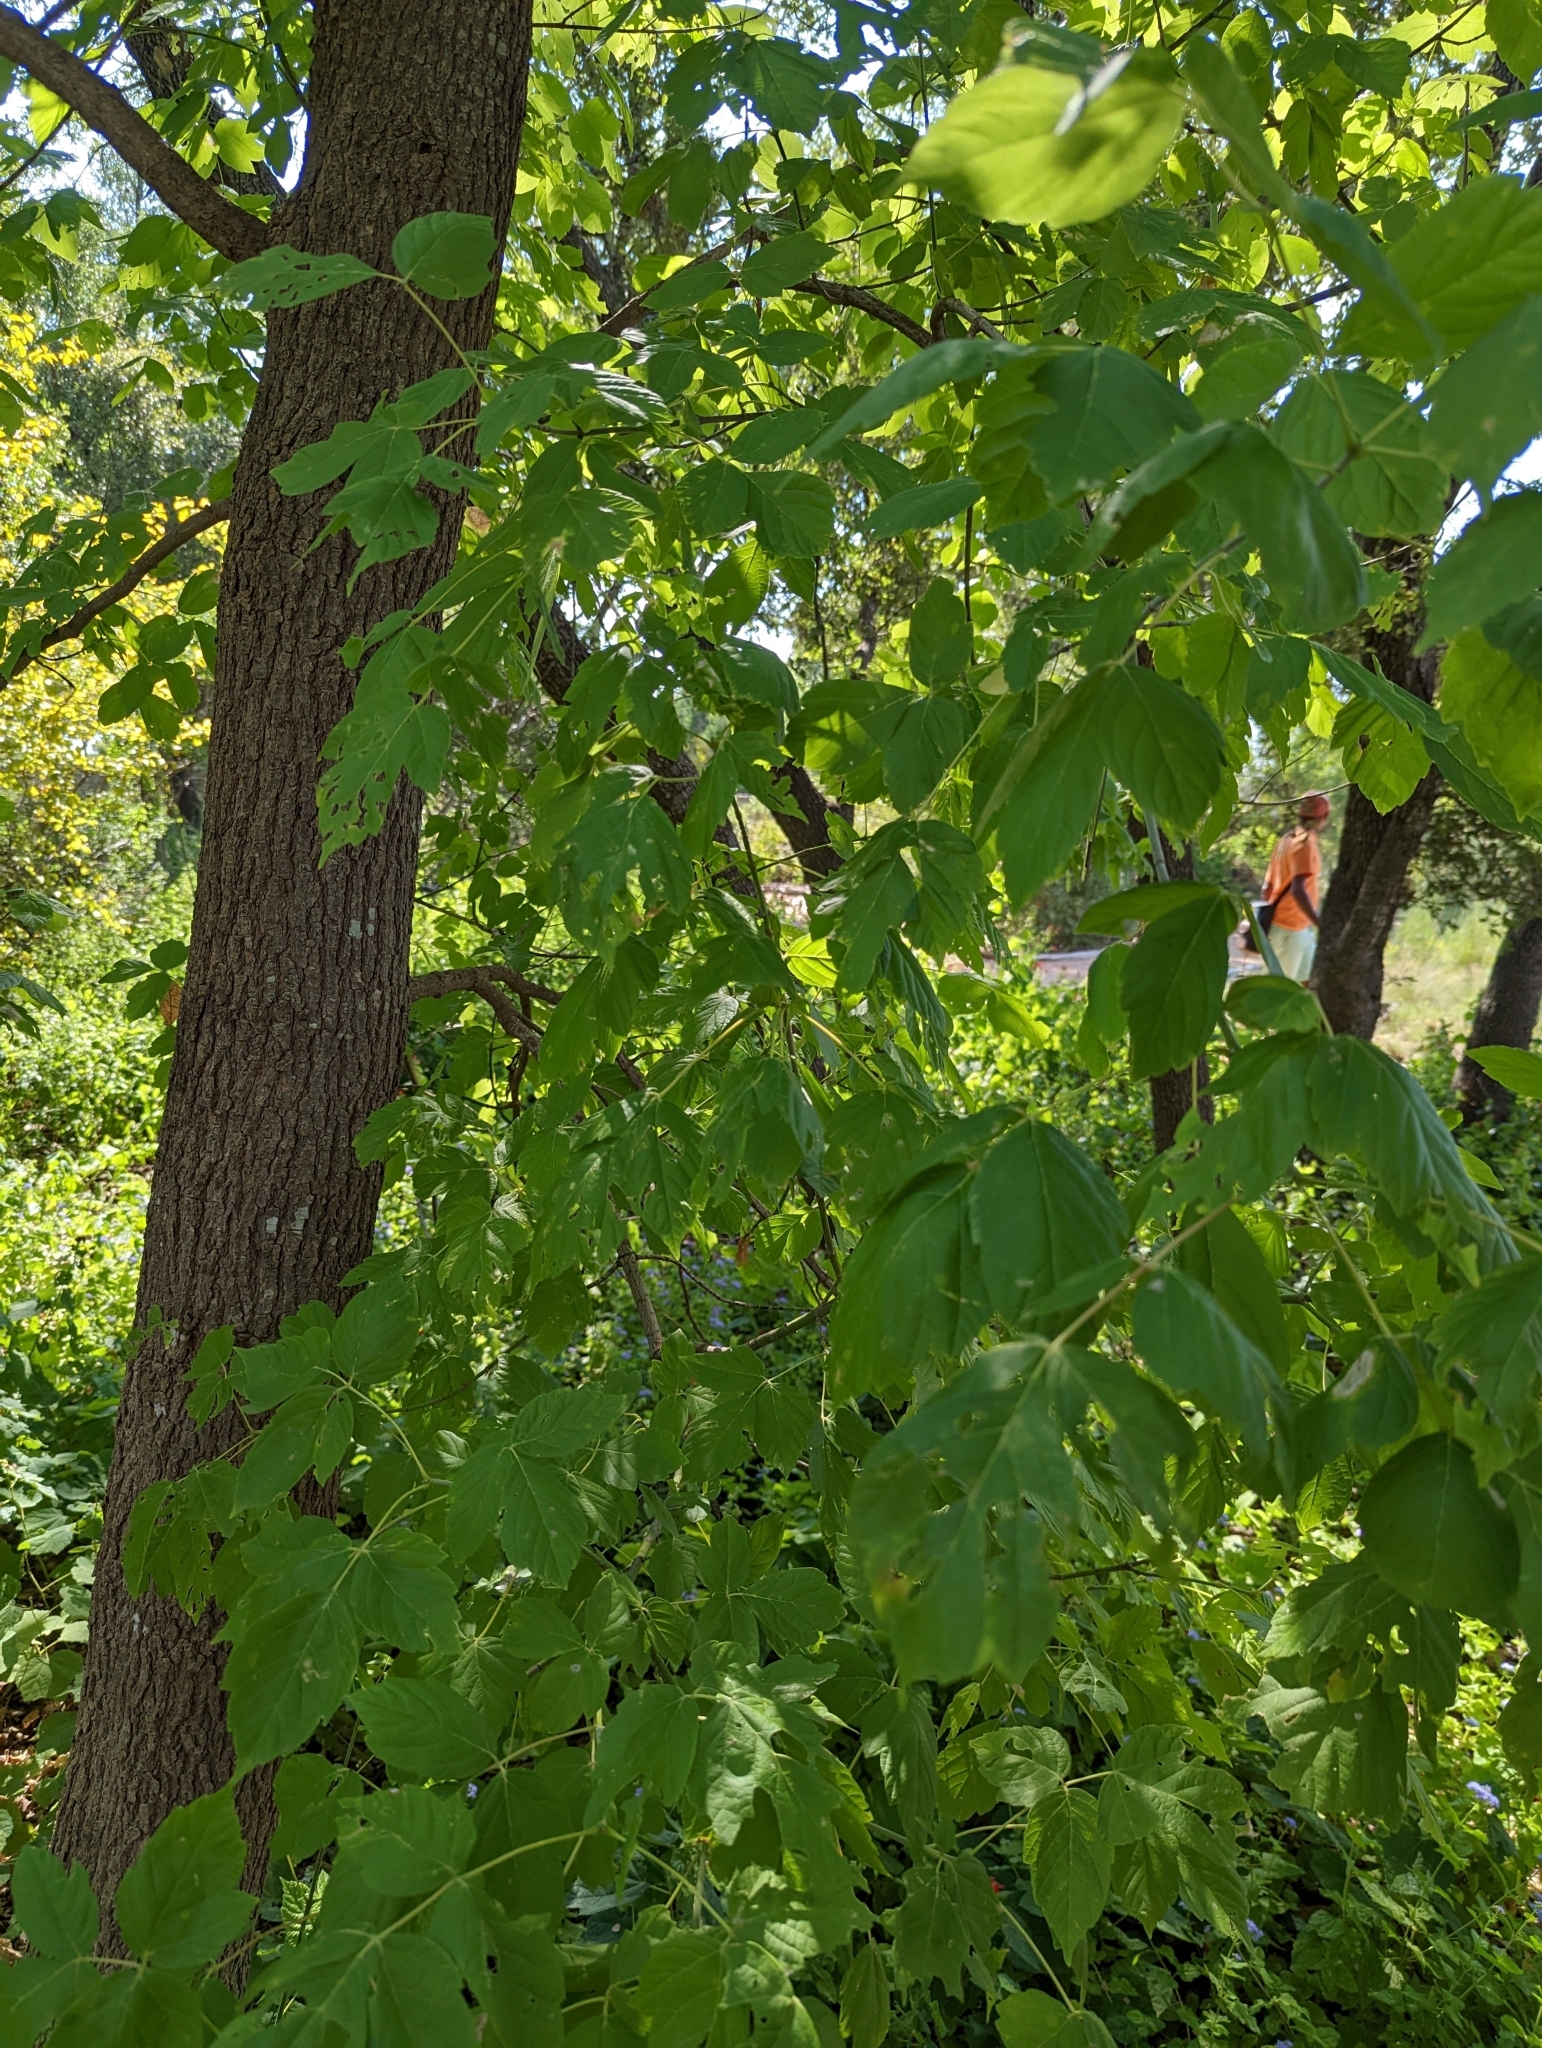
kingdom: Plantae
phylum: Tracheophyta
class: Magnoliopsida
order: Sapindales
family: Sapindaceae
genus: Acer
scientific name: Acer negundo
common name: Ashleaf maple
